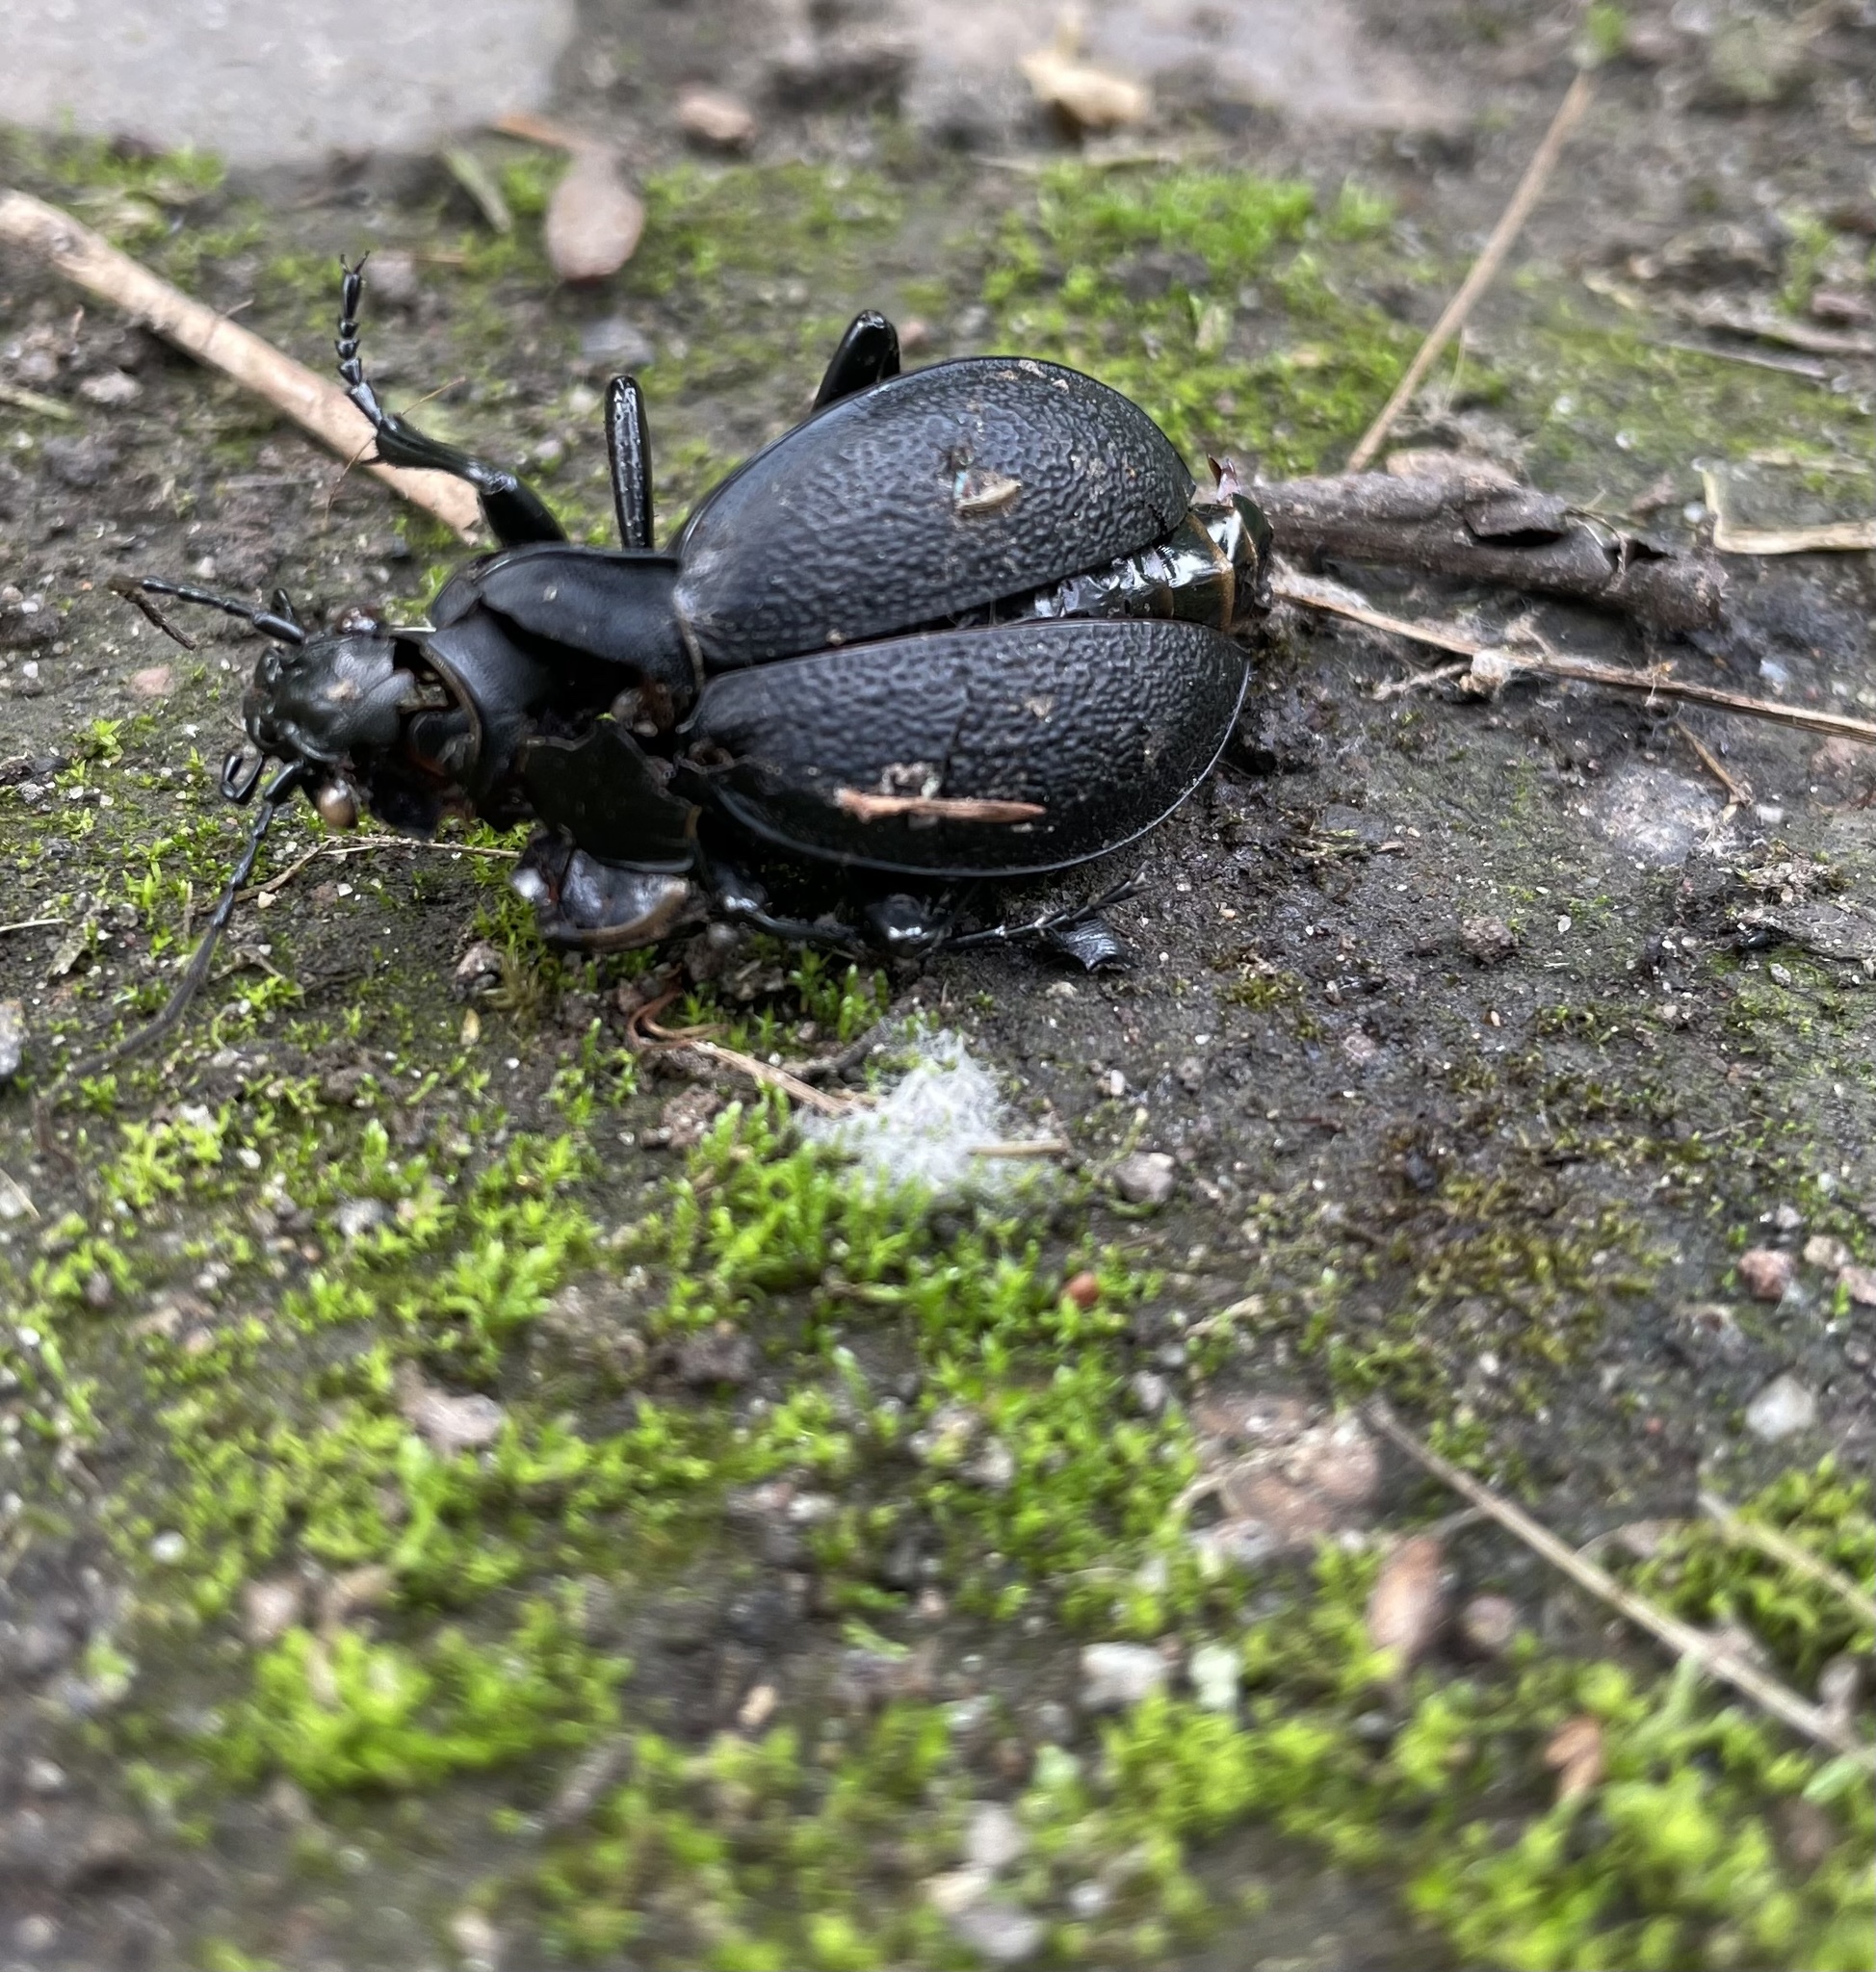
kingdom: Animalia
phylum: Arthropoda
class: Insecta
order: Coleoptera
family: Carabidae
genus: Carabus
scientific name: Carabus coriaceus
